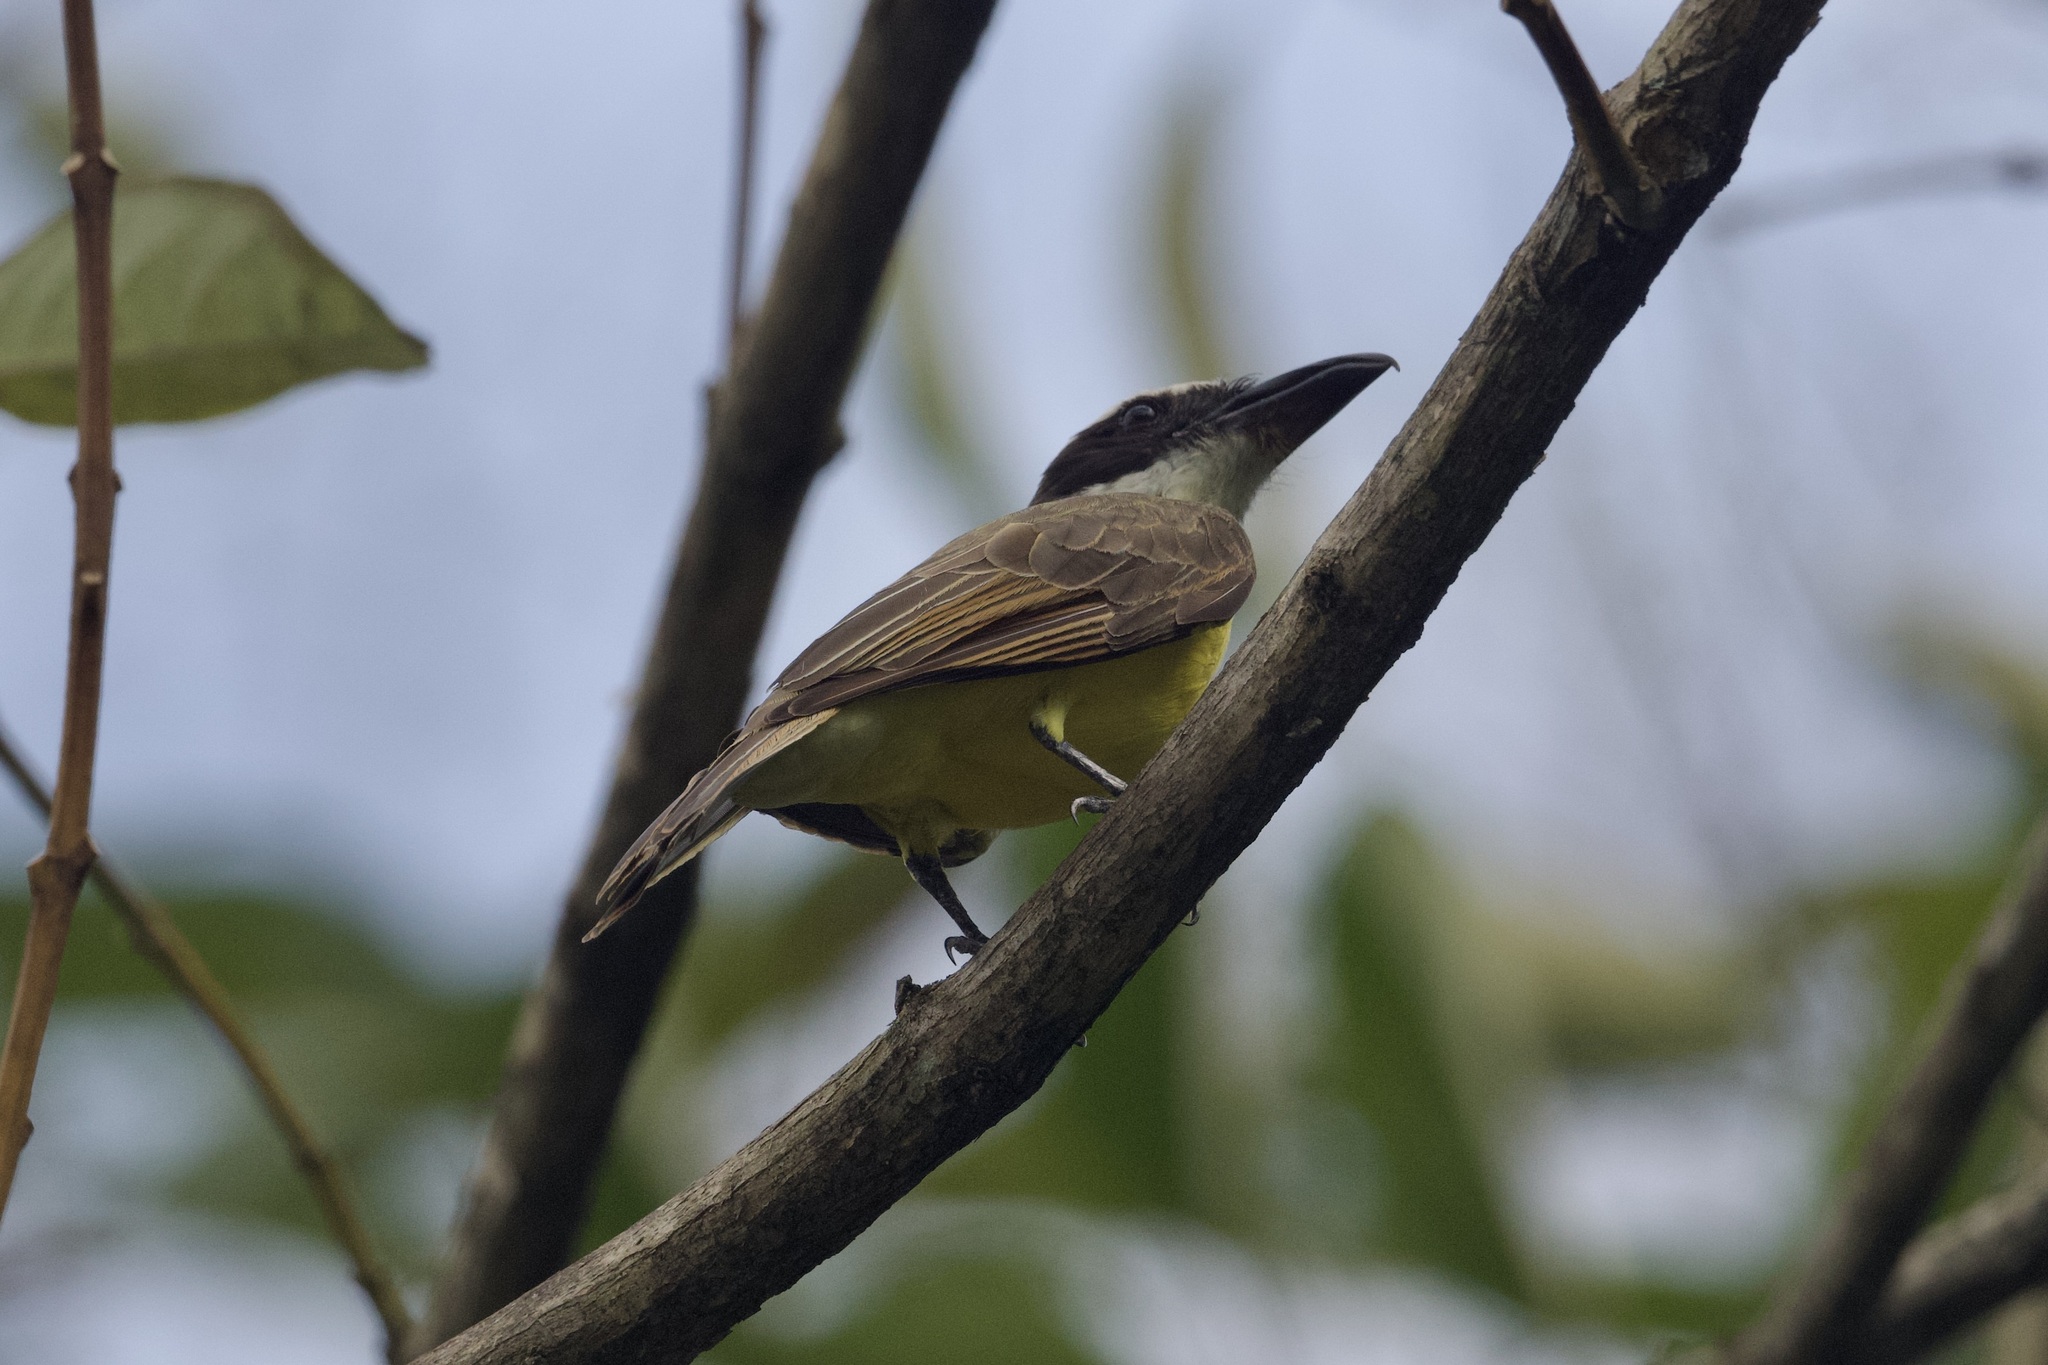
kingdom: Animalia
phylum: Chordata
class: Aves
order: Passeriformes
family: Tyrannidae
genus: Megarynchus
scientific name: Megarynchus pitangua
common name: Boat-billed flycatcher
